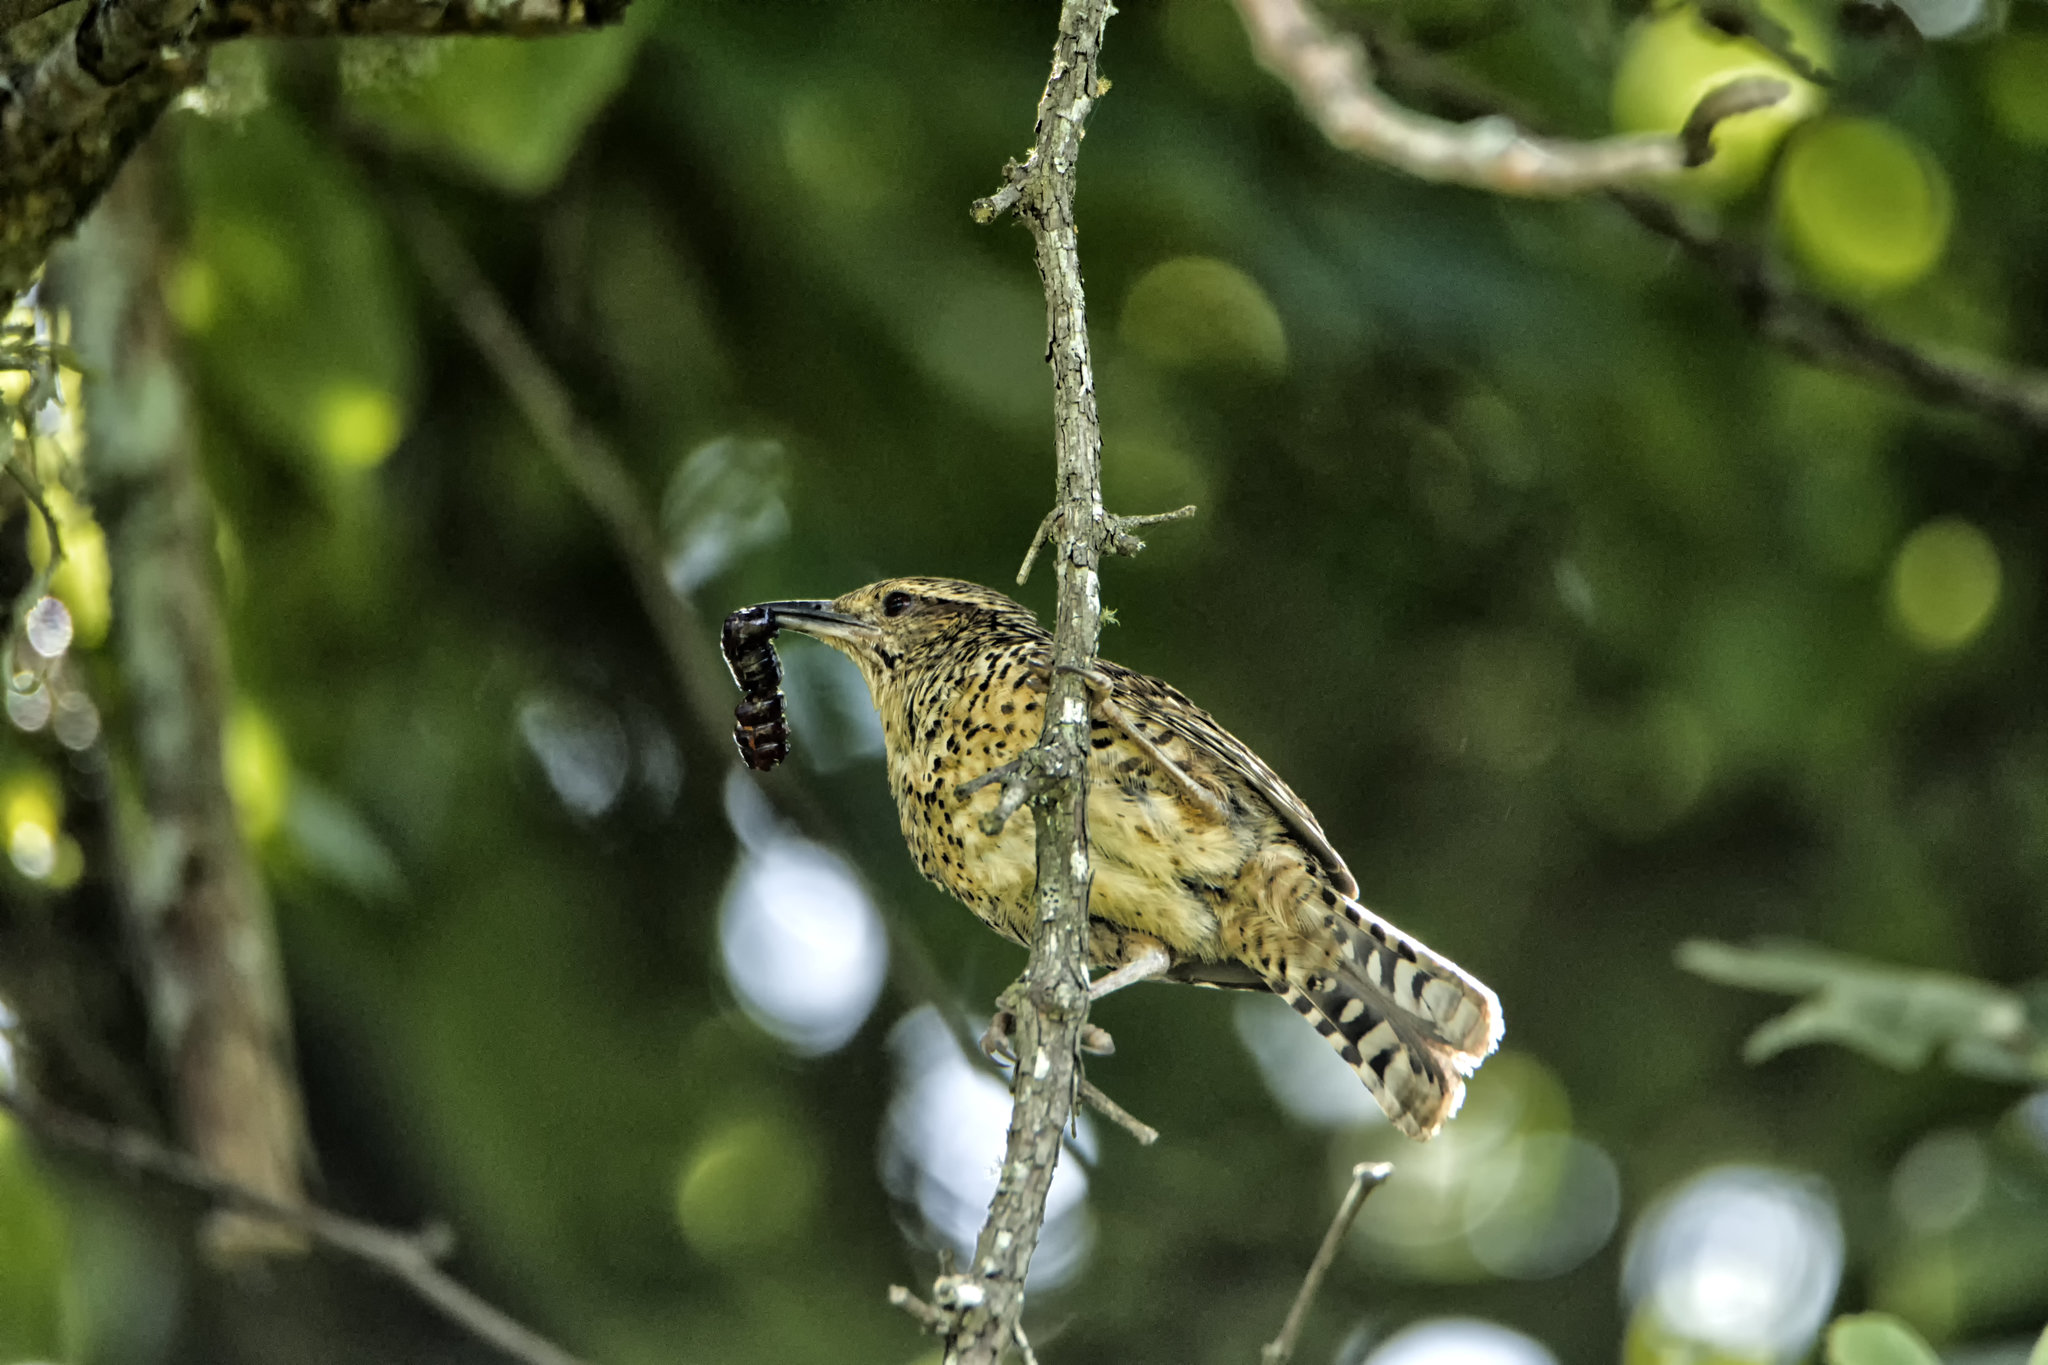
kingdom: Animalia
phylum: Chordata
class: Aves
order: Passeriformes
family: Troglodytidae
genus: Campylorhynchus
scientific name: Campylorhynchus gularis
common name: Spotted wren
